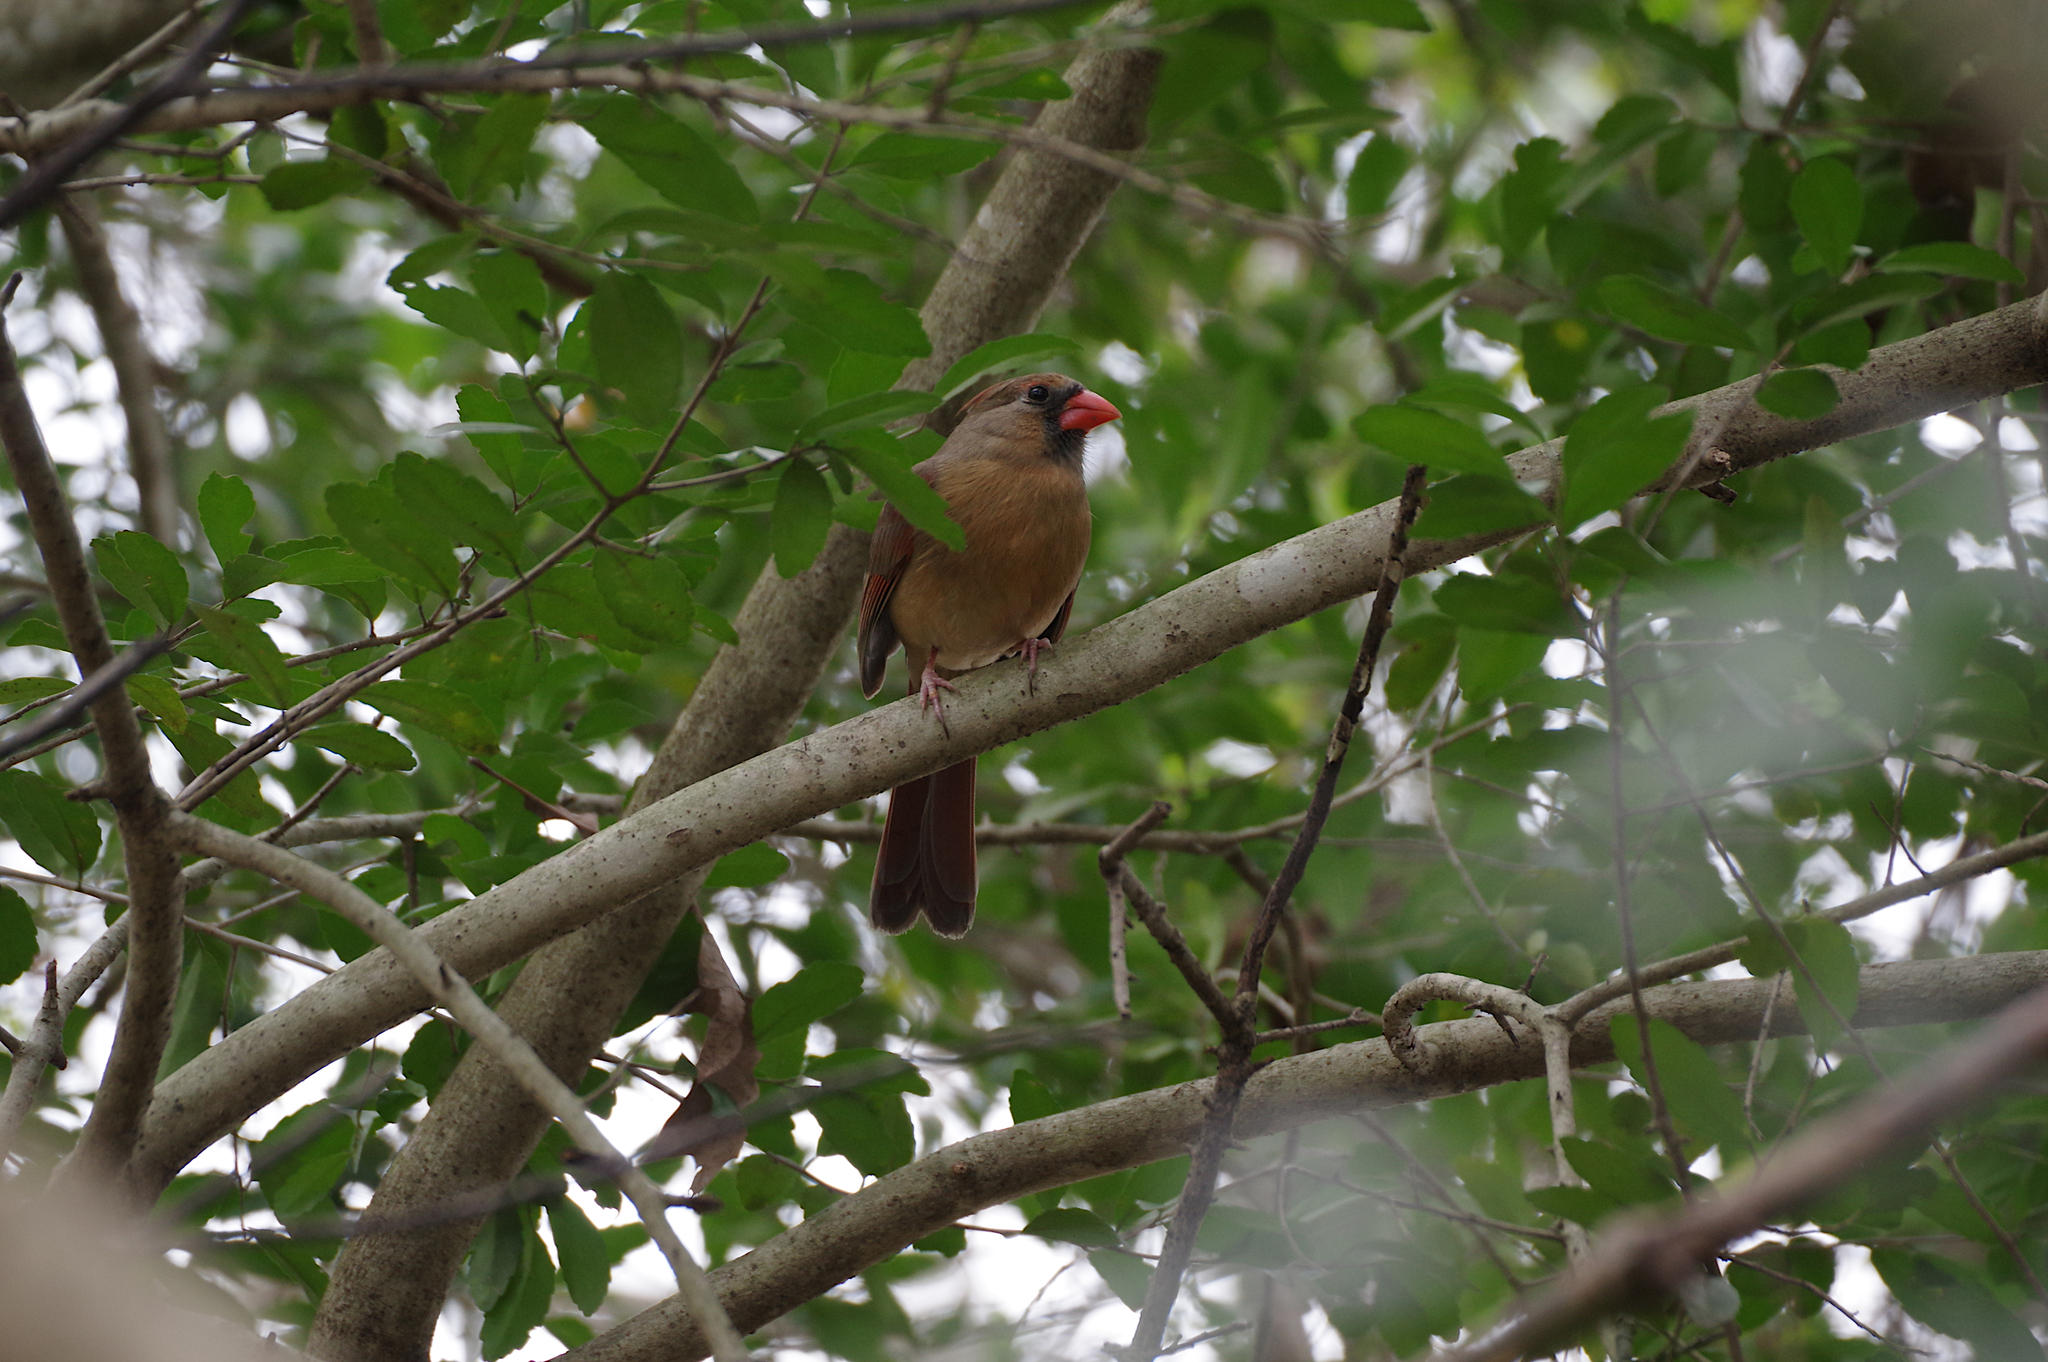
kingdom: Animalia
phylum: Chordata
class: Aves
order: Passeriformes
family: Cardinalidae
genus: Cardinalis
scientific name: Cardinalis cardinalis
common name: Northern cardinal
